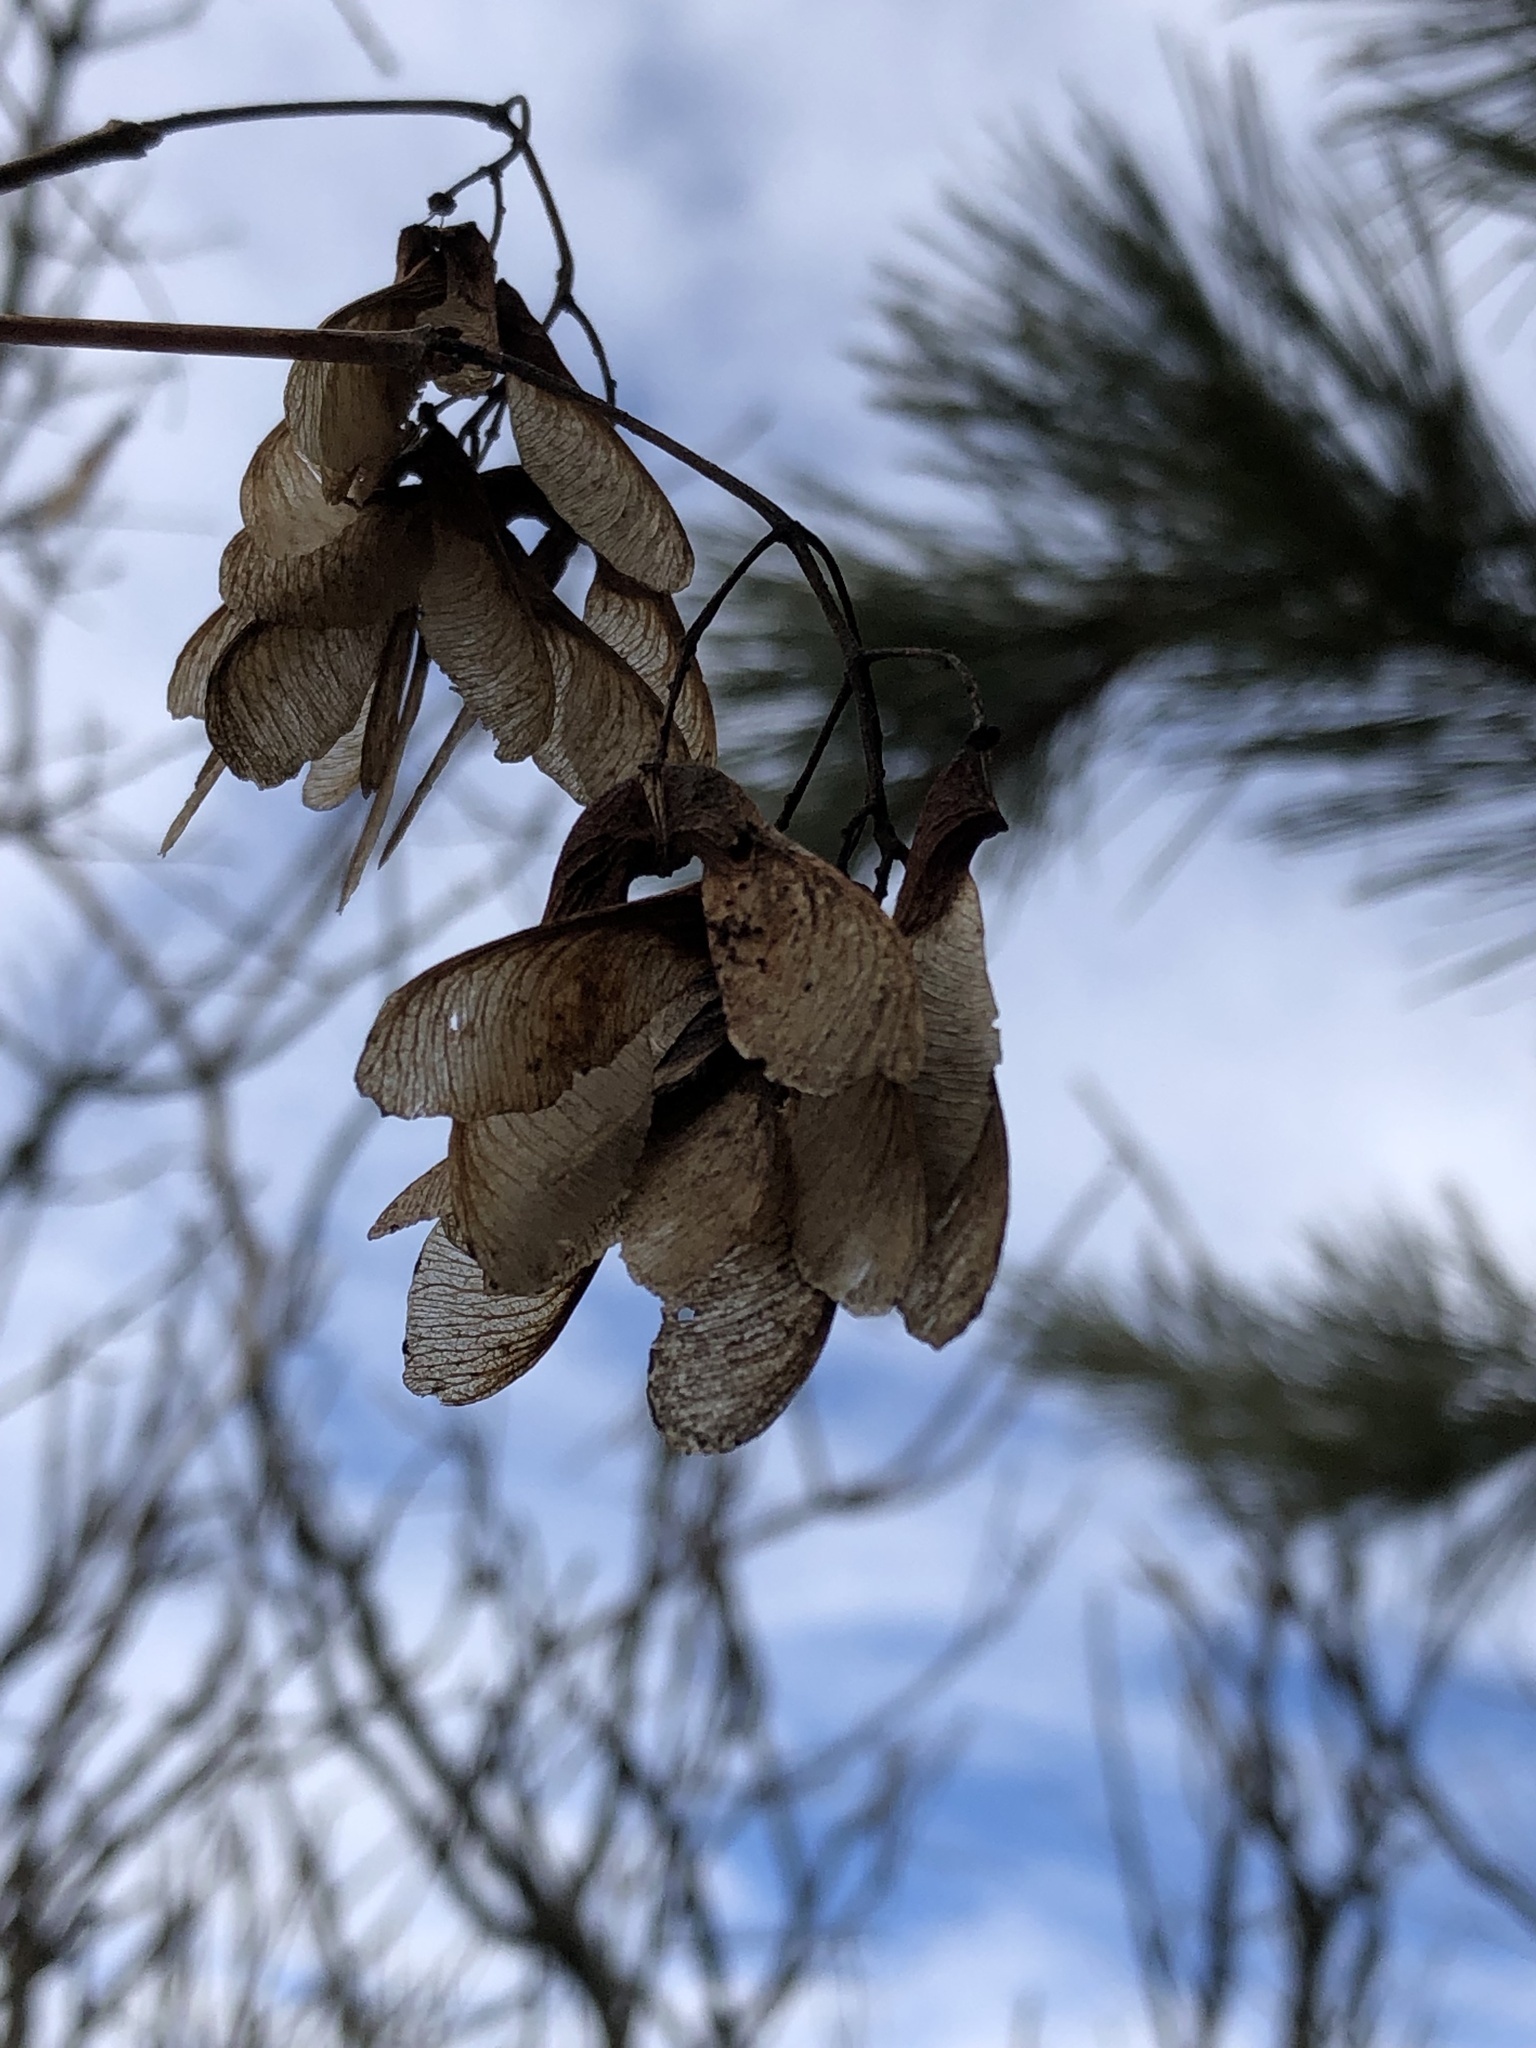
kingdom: Plantae
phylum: Tracheophyta
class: Magnoliopsida
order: Sapindales
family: Sapindaceae
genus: Acer
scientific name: Acer tataricum
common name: Tartar maple
